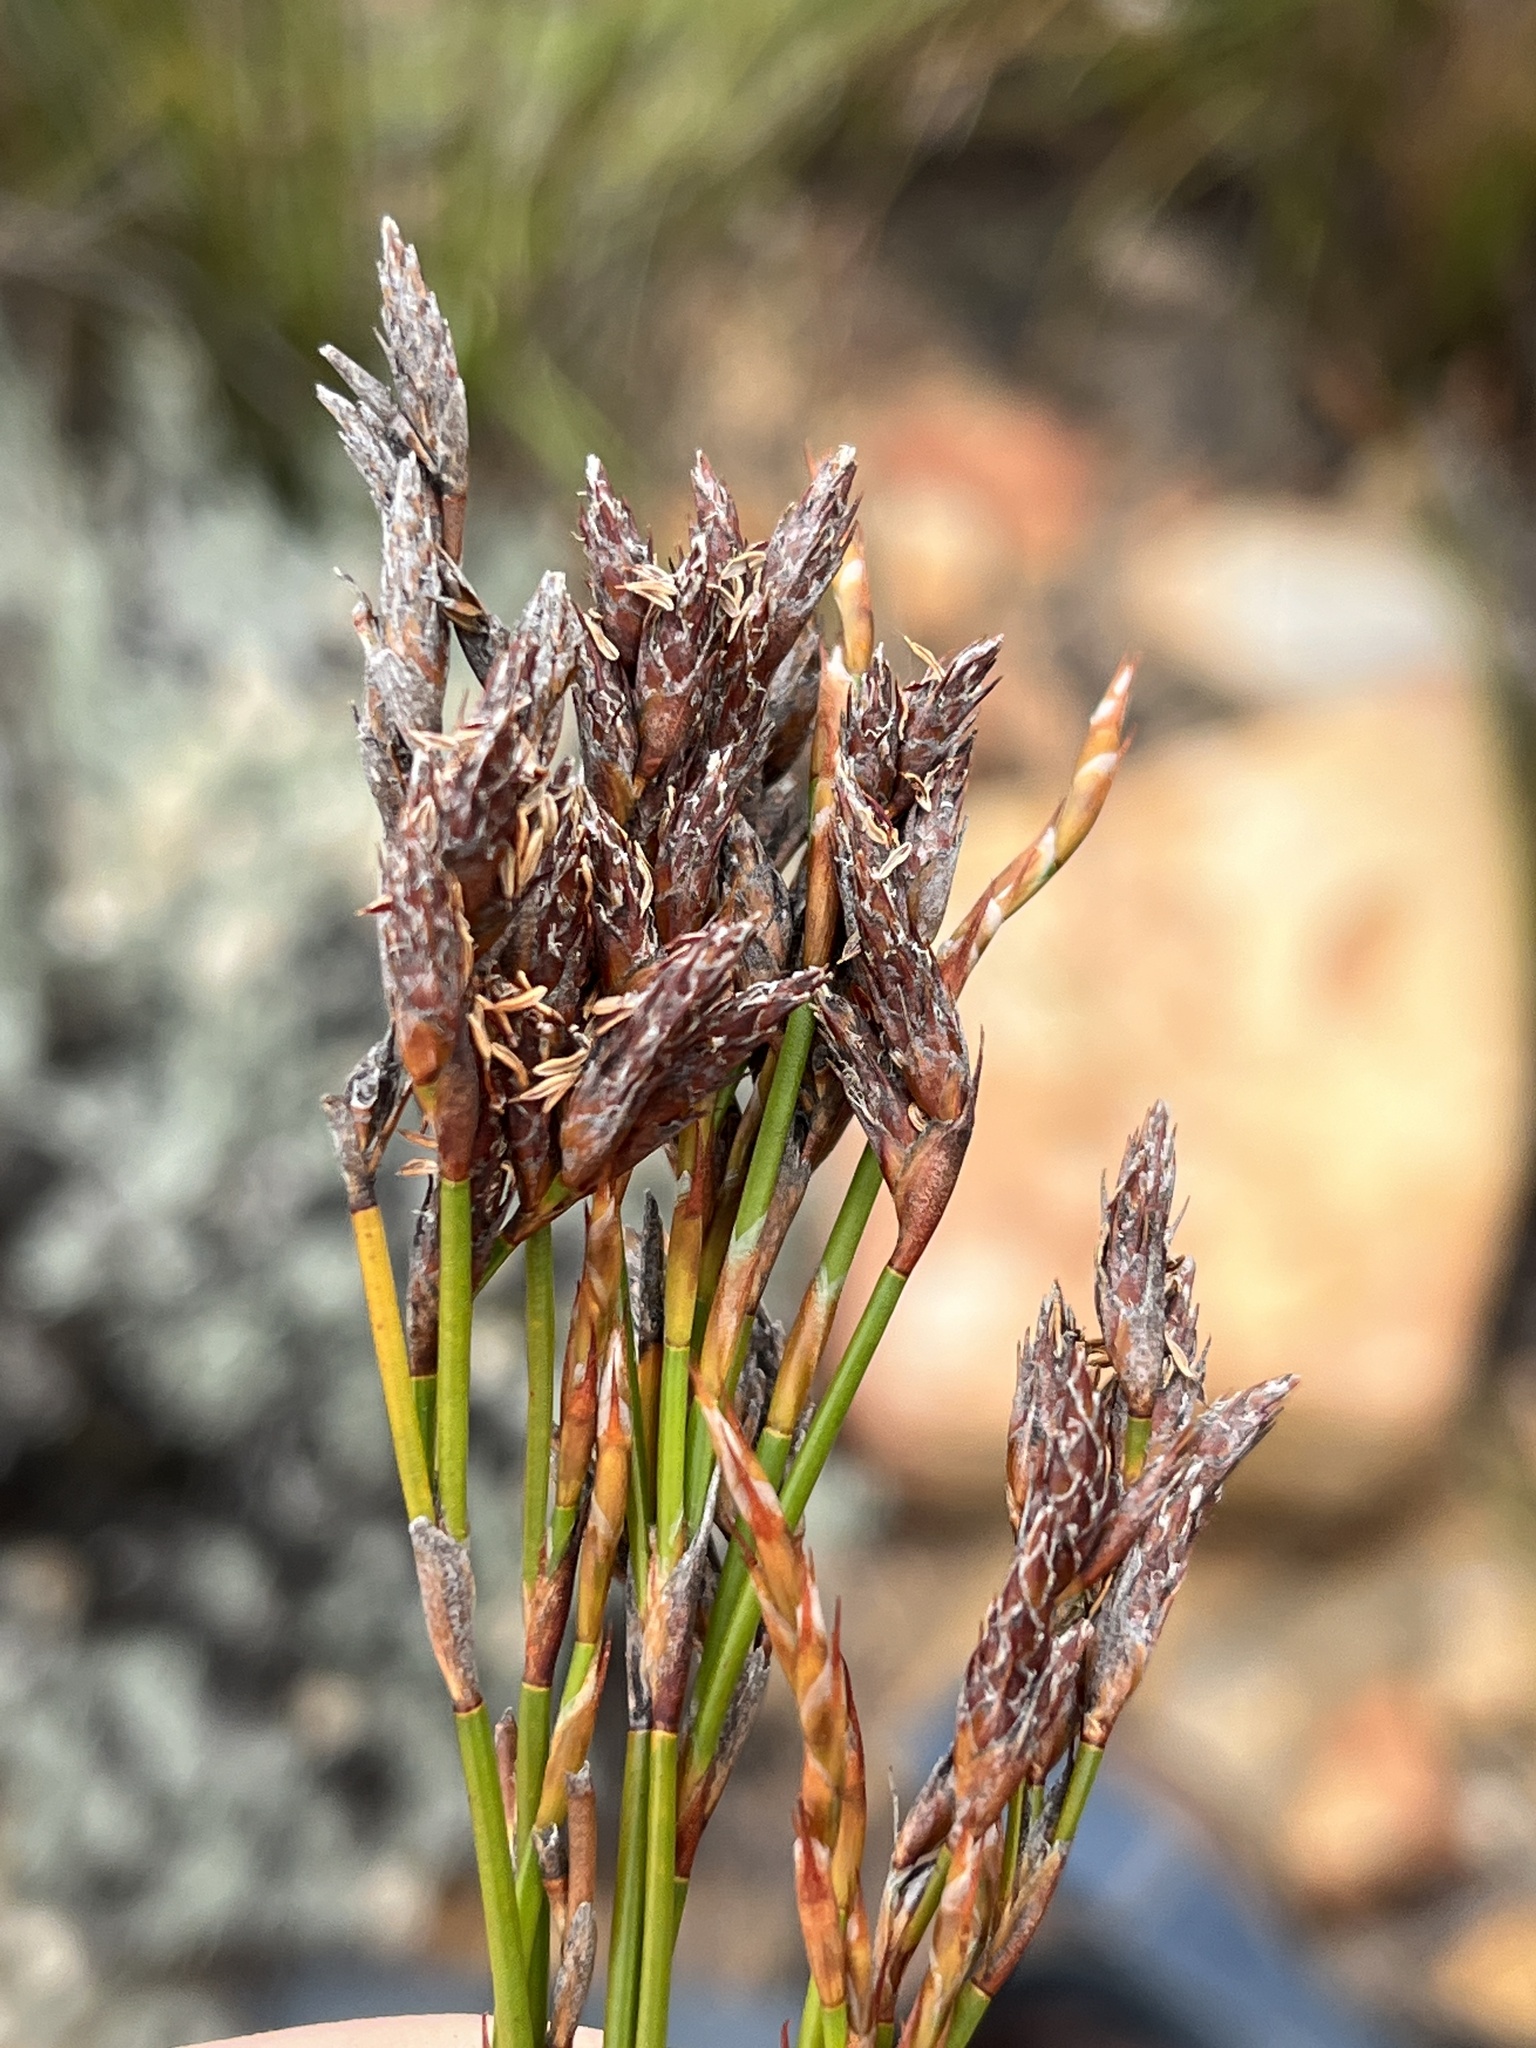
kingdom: Plantae
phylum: Tracheophyta
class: Liliopsida
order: Poales
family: Restionaceae
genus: Restio
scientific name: Restio brachiatus
